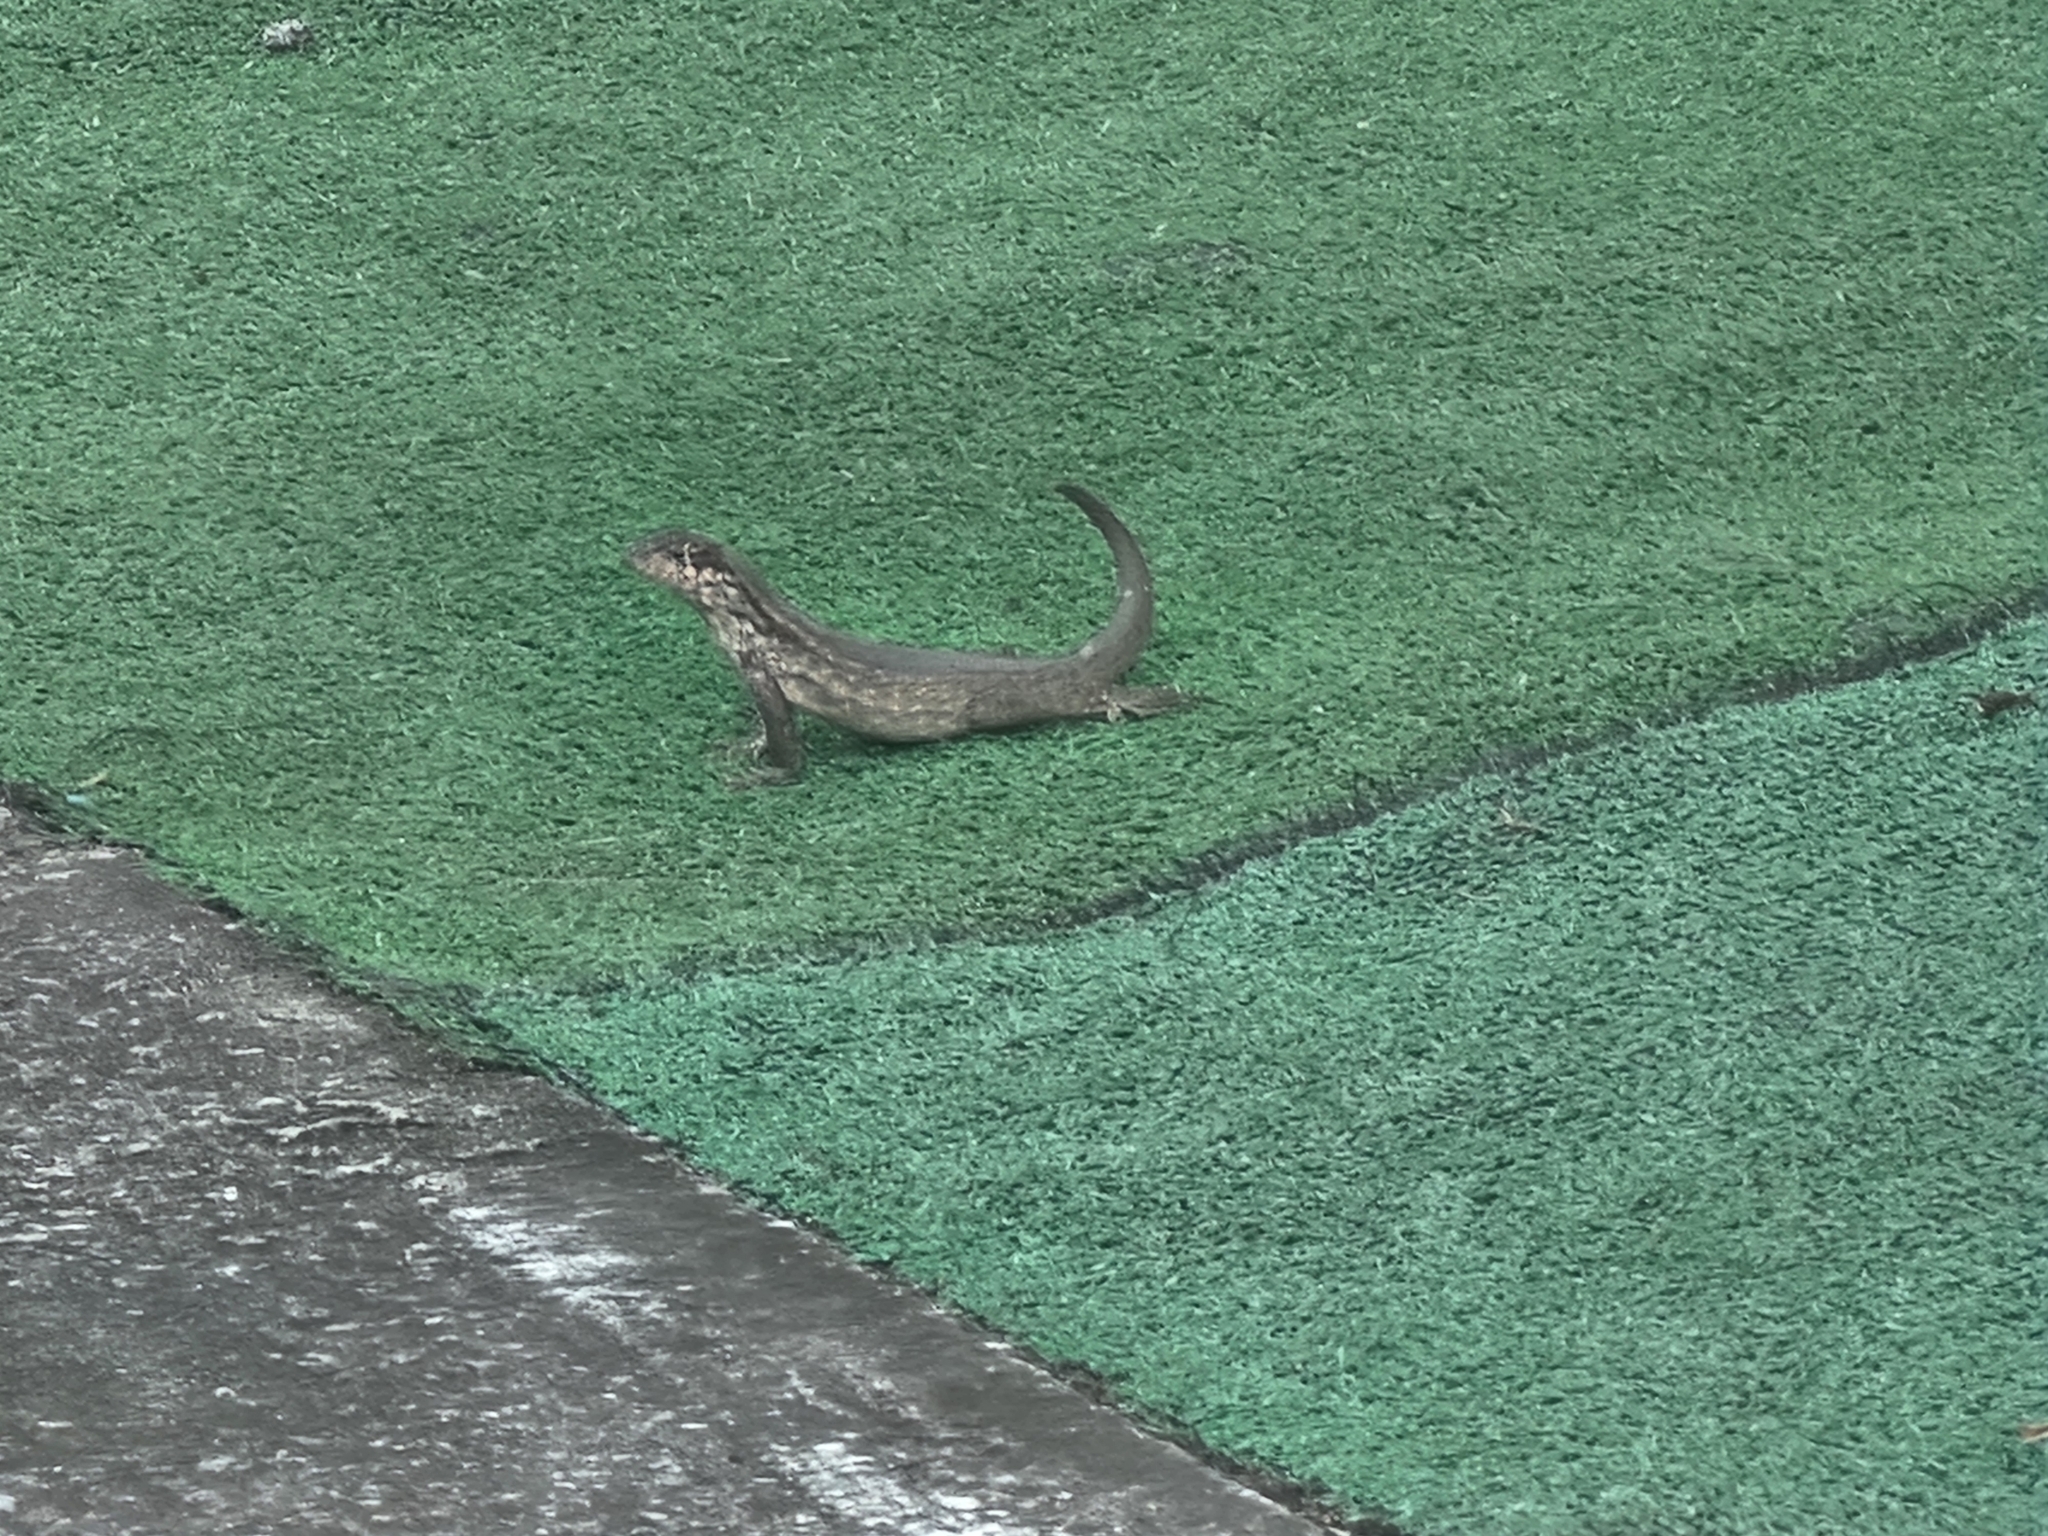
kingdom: Animalia
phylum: Chordata
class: Squamata
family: Leiocephalidae
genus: Leiocephalus
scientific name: Leiocephalus carinatus
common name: Northern curly-tailed lizard
